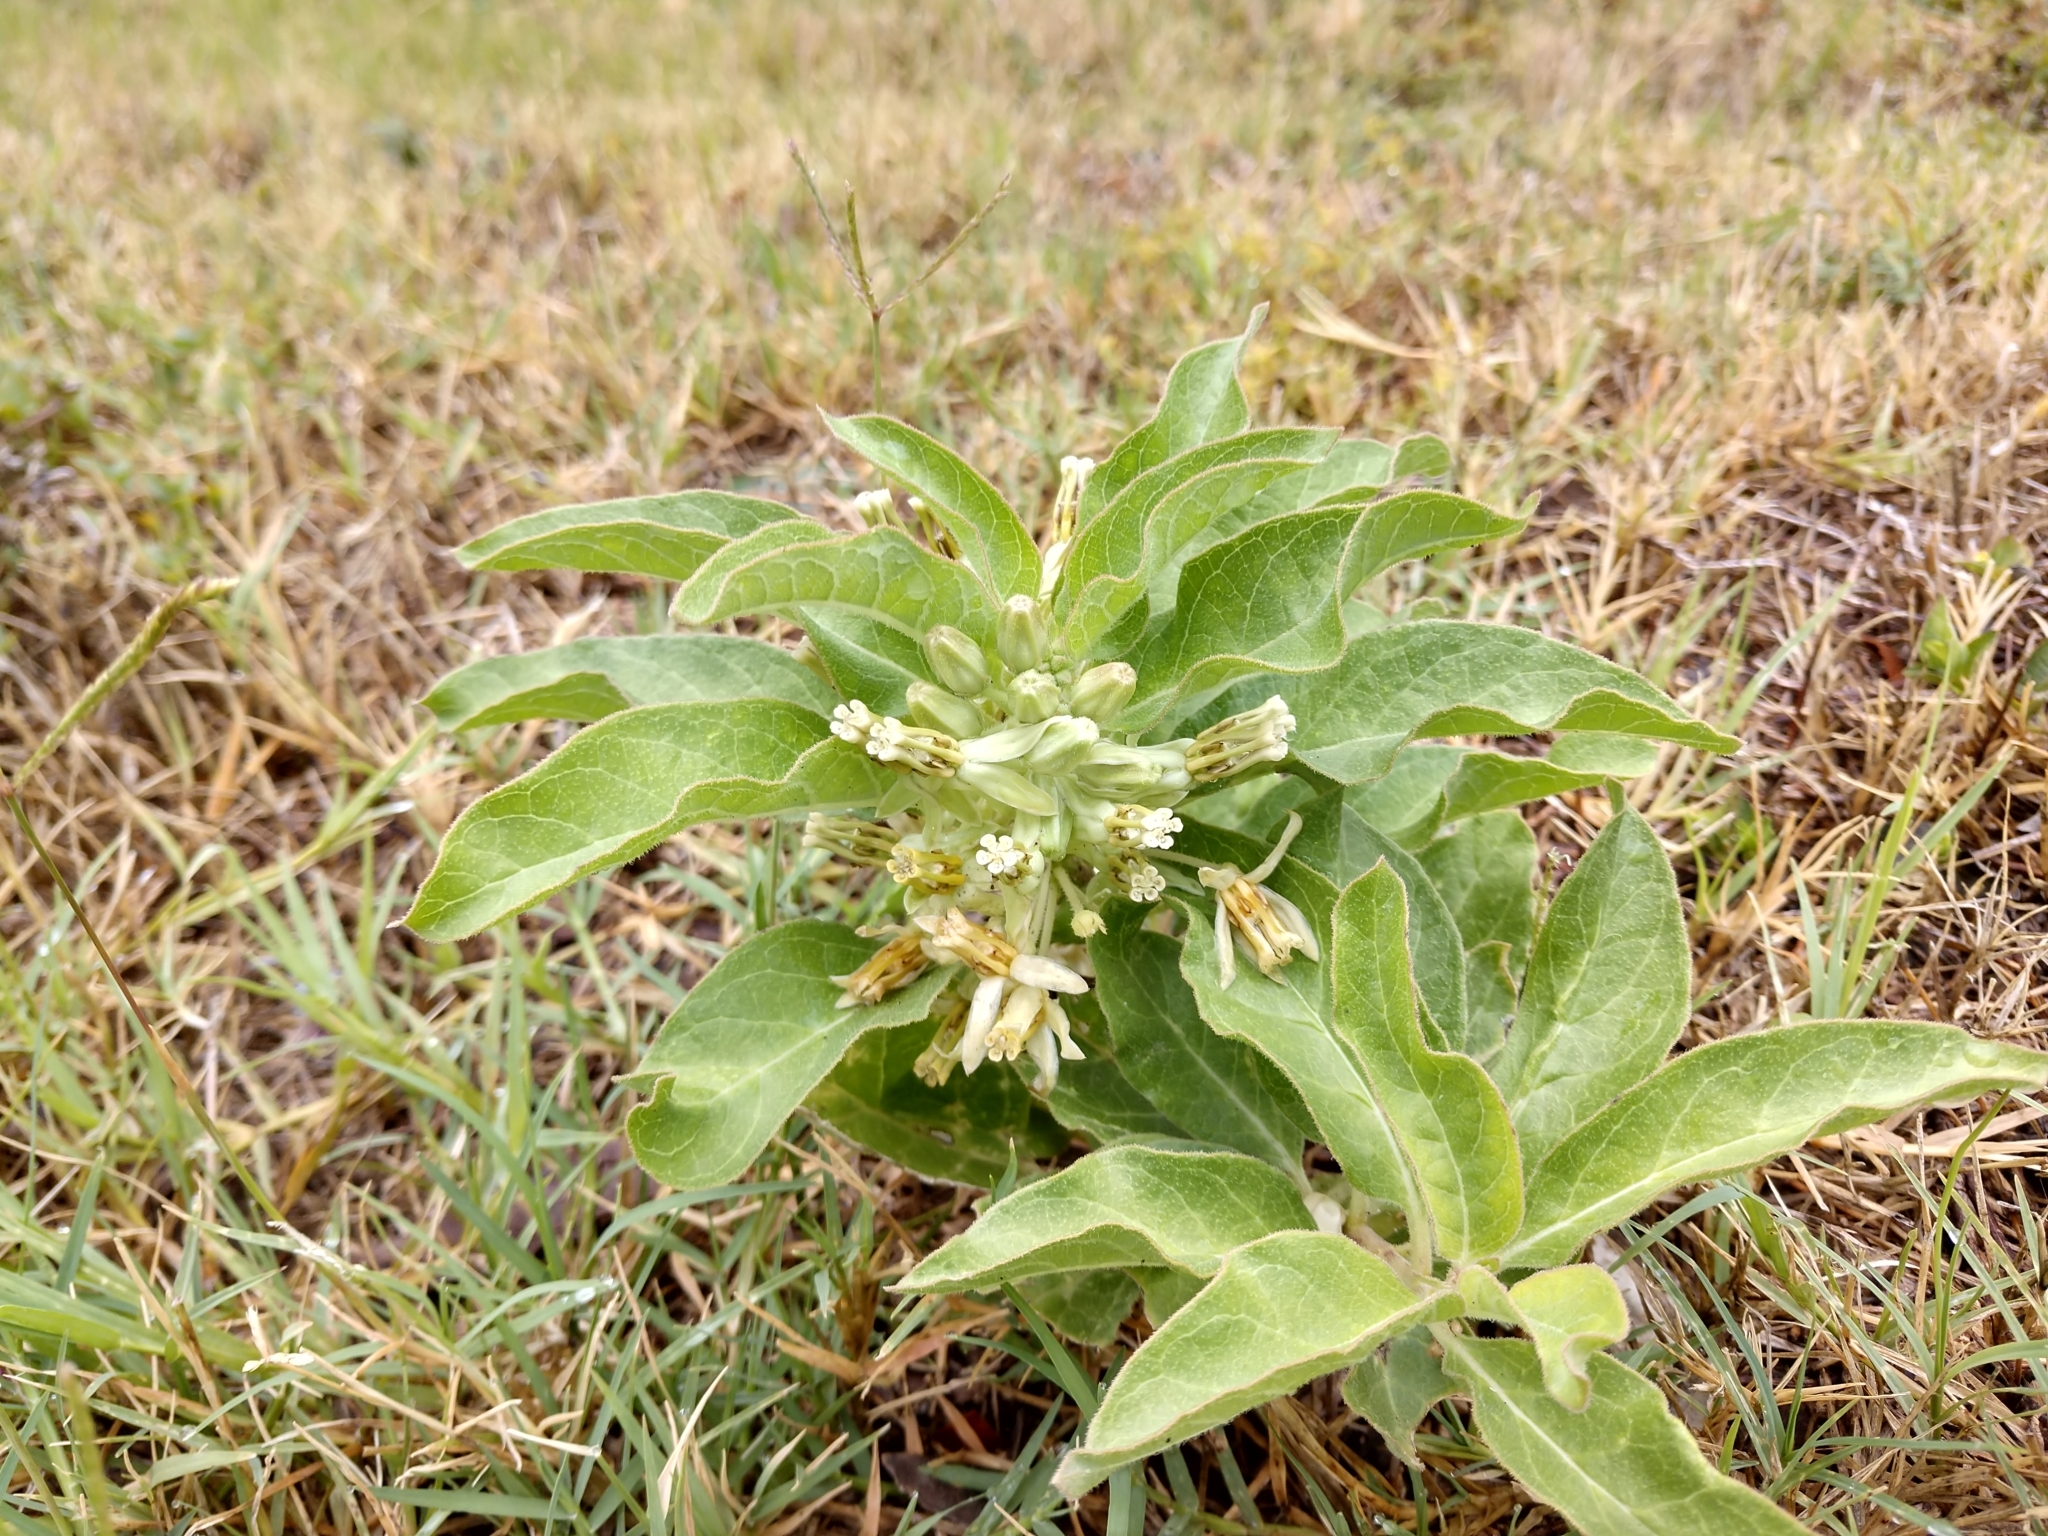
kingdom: Plantae
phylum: Tracheophyta
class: Magnoliopsida
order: Gentianales
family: Apocynaceae
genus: Asclepias
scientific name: Asclepias oenotheroides
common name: Zizotes milkweed
